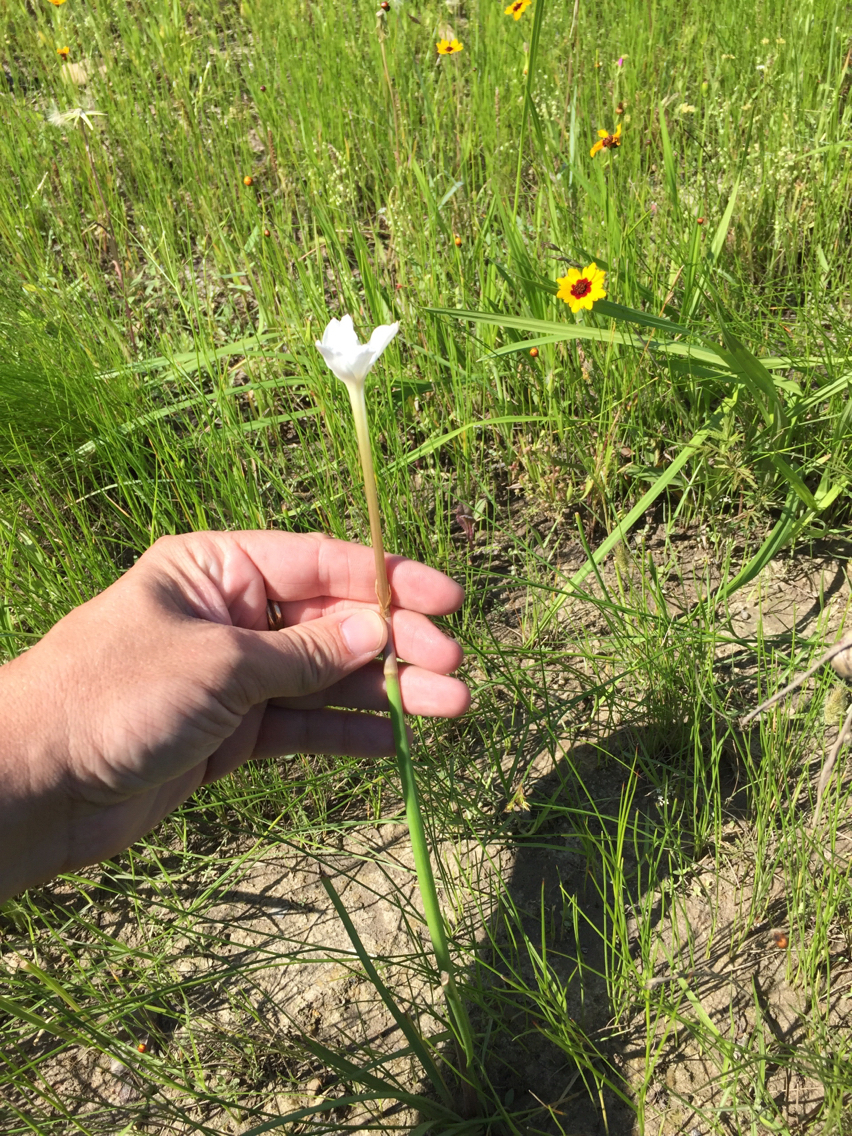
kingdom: Plantae
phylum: Tracheophyta
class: Liliopsida
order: Asparagales
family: Amaryllidaceae
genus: Zephyranthes
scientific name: Zephyranthes chlorosolen
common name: Evening rain-lily
